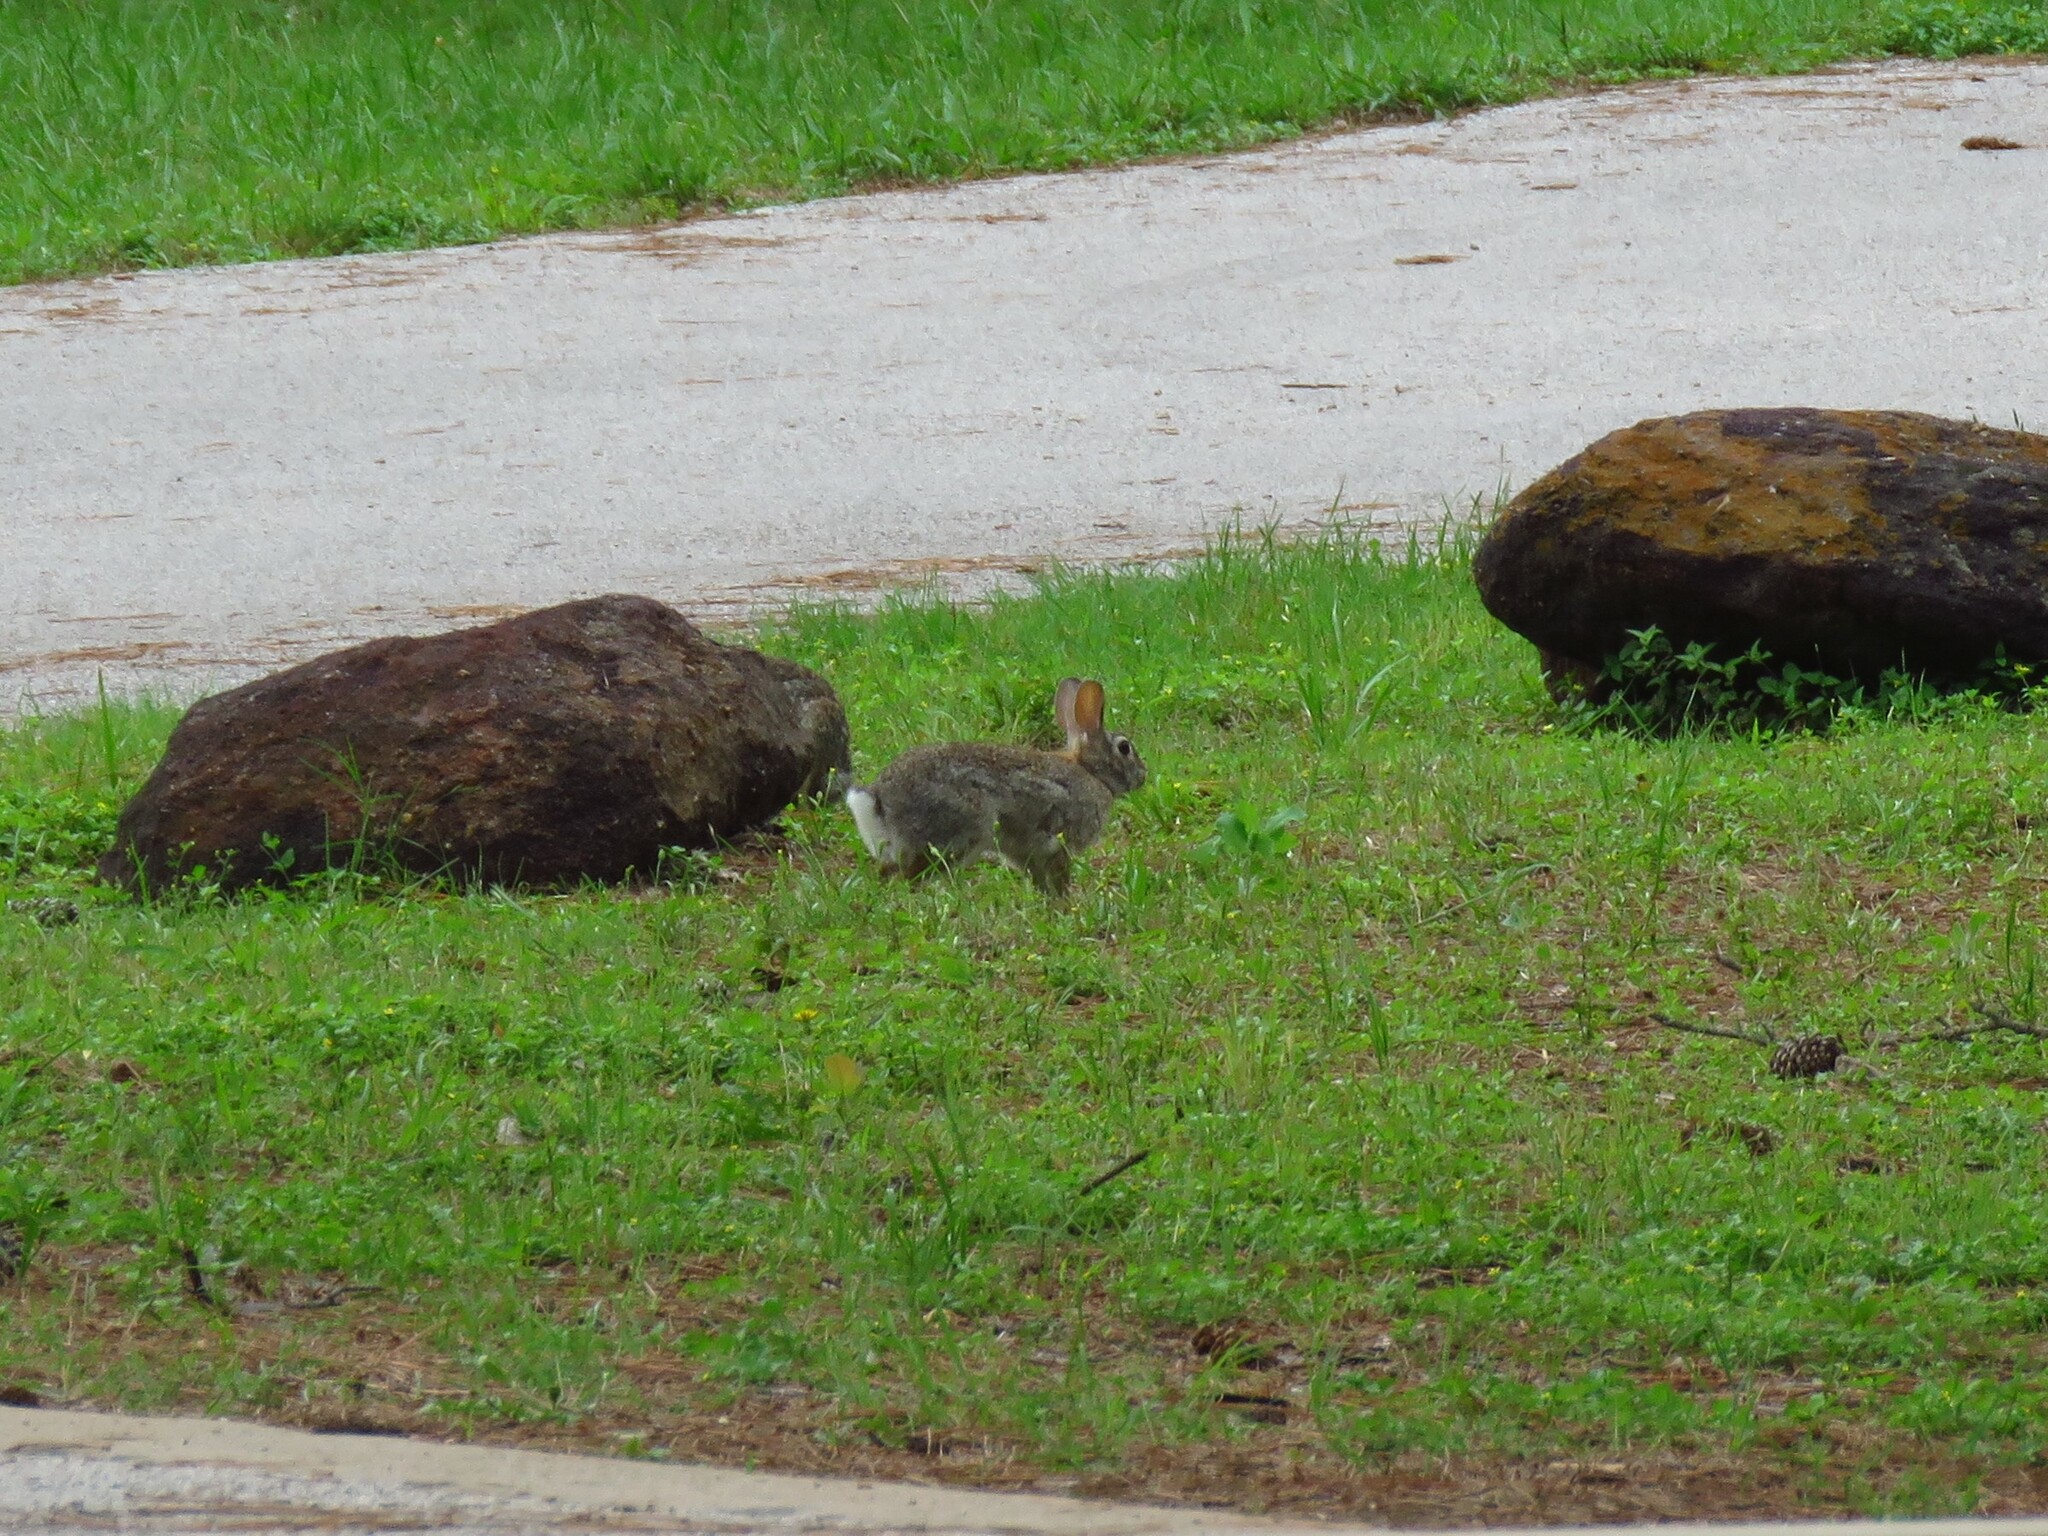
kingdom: Animalia
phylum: Chordata
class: Mammalia
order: Lagomorpha
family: Leporidae
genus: Sylvilagus
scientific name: Sylvilagus floridanus
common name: Eastern cottontail
